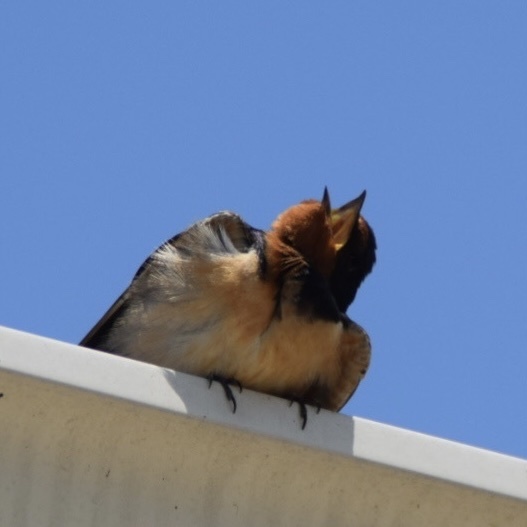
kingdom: Animalia
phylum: Chordata
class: Aves
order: Passeriformes
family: Hirundinidae
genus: Hirundo
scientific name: Hirundo rustica
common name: Barn swallow
